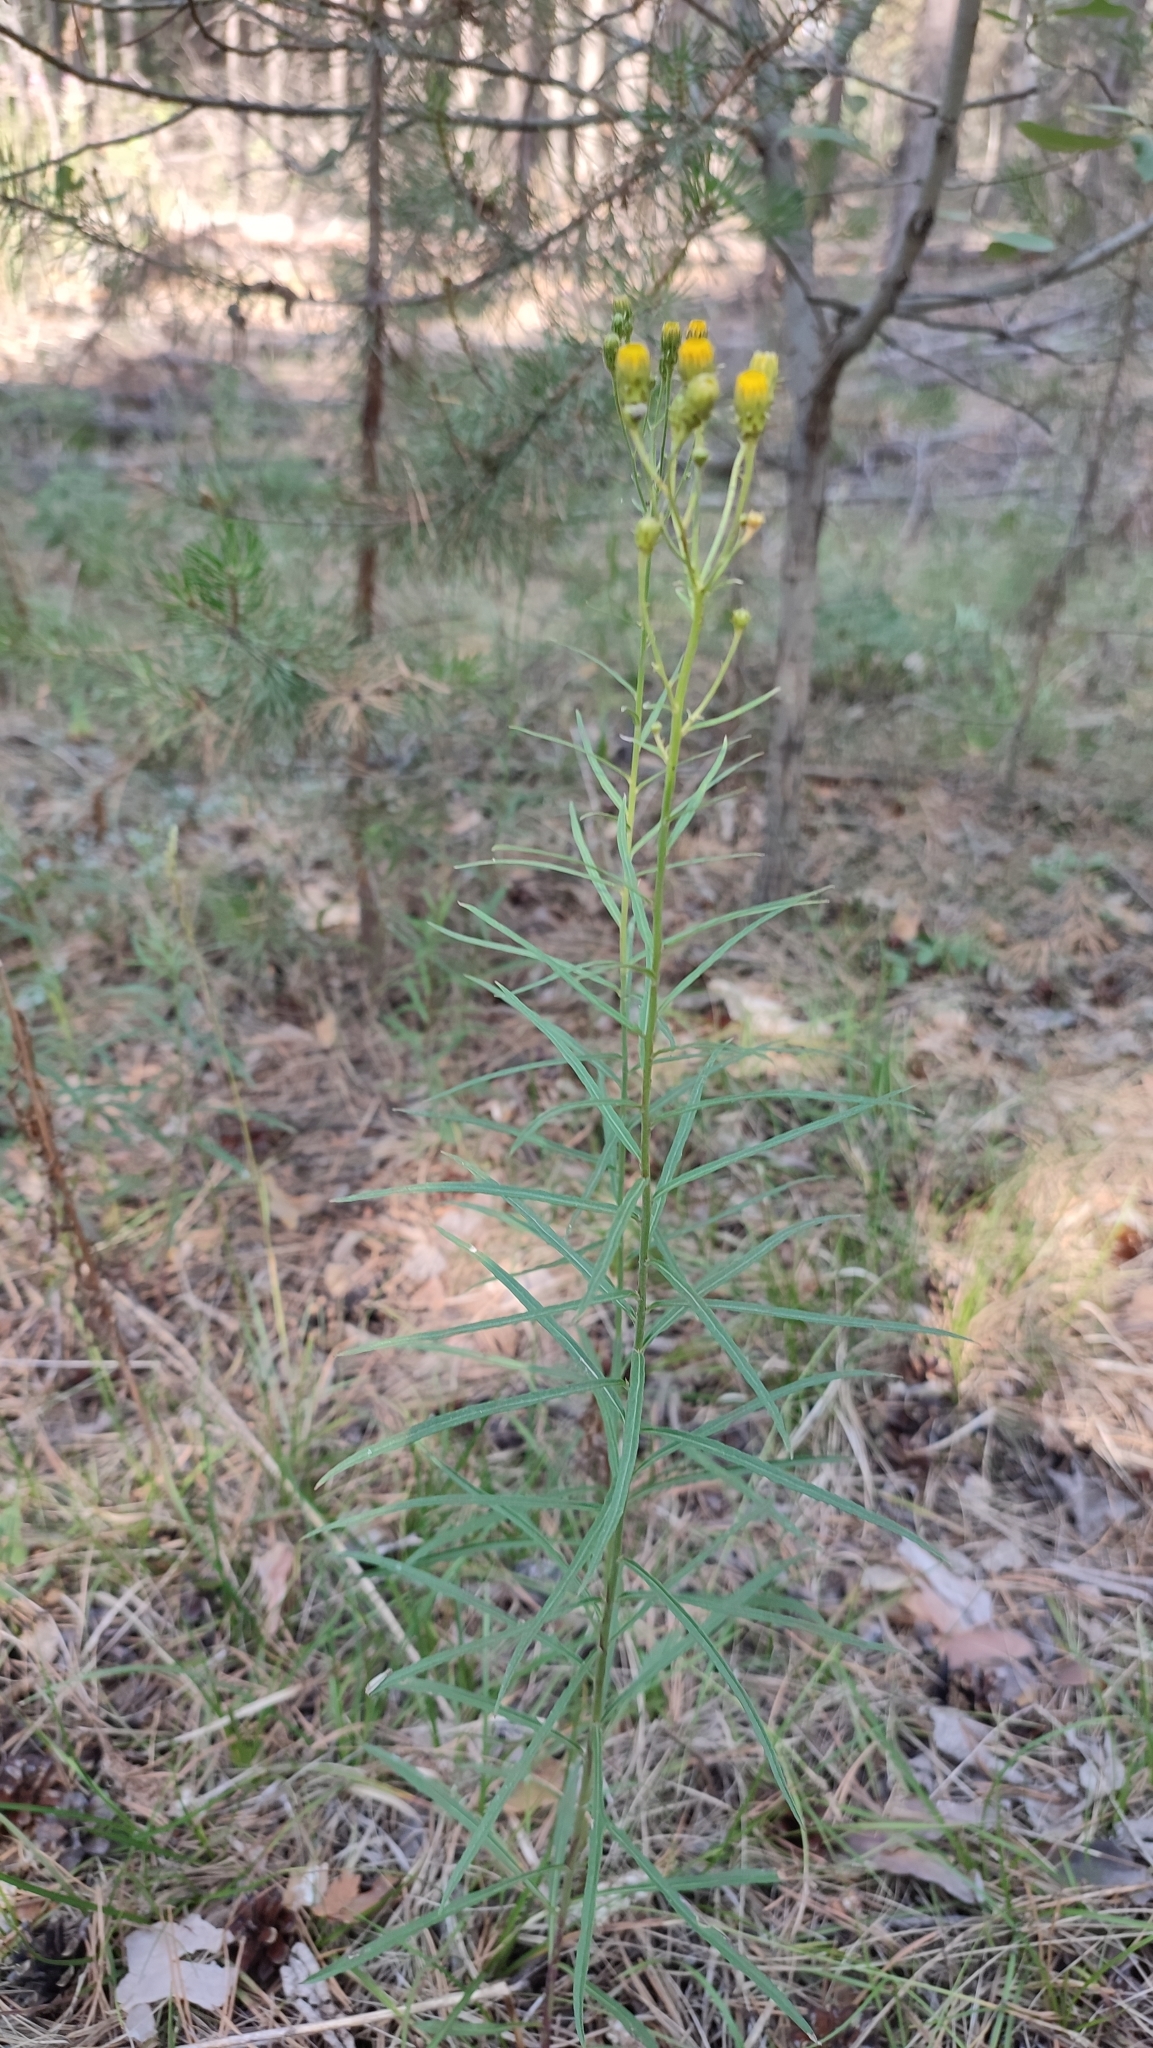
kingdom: Plantae
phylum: Tracheophyta
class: Magnoliopsida
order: Asterales
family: Asteraceae
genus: Hieracium
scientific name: Hieracium umbellatum
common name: Northern hawkweed
